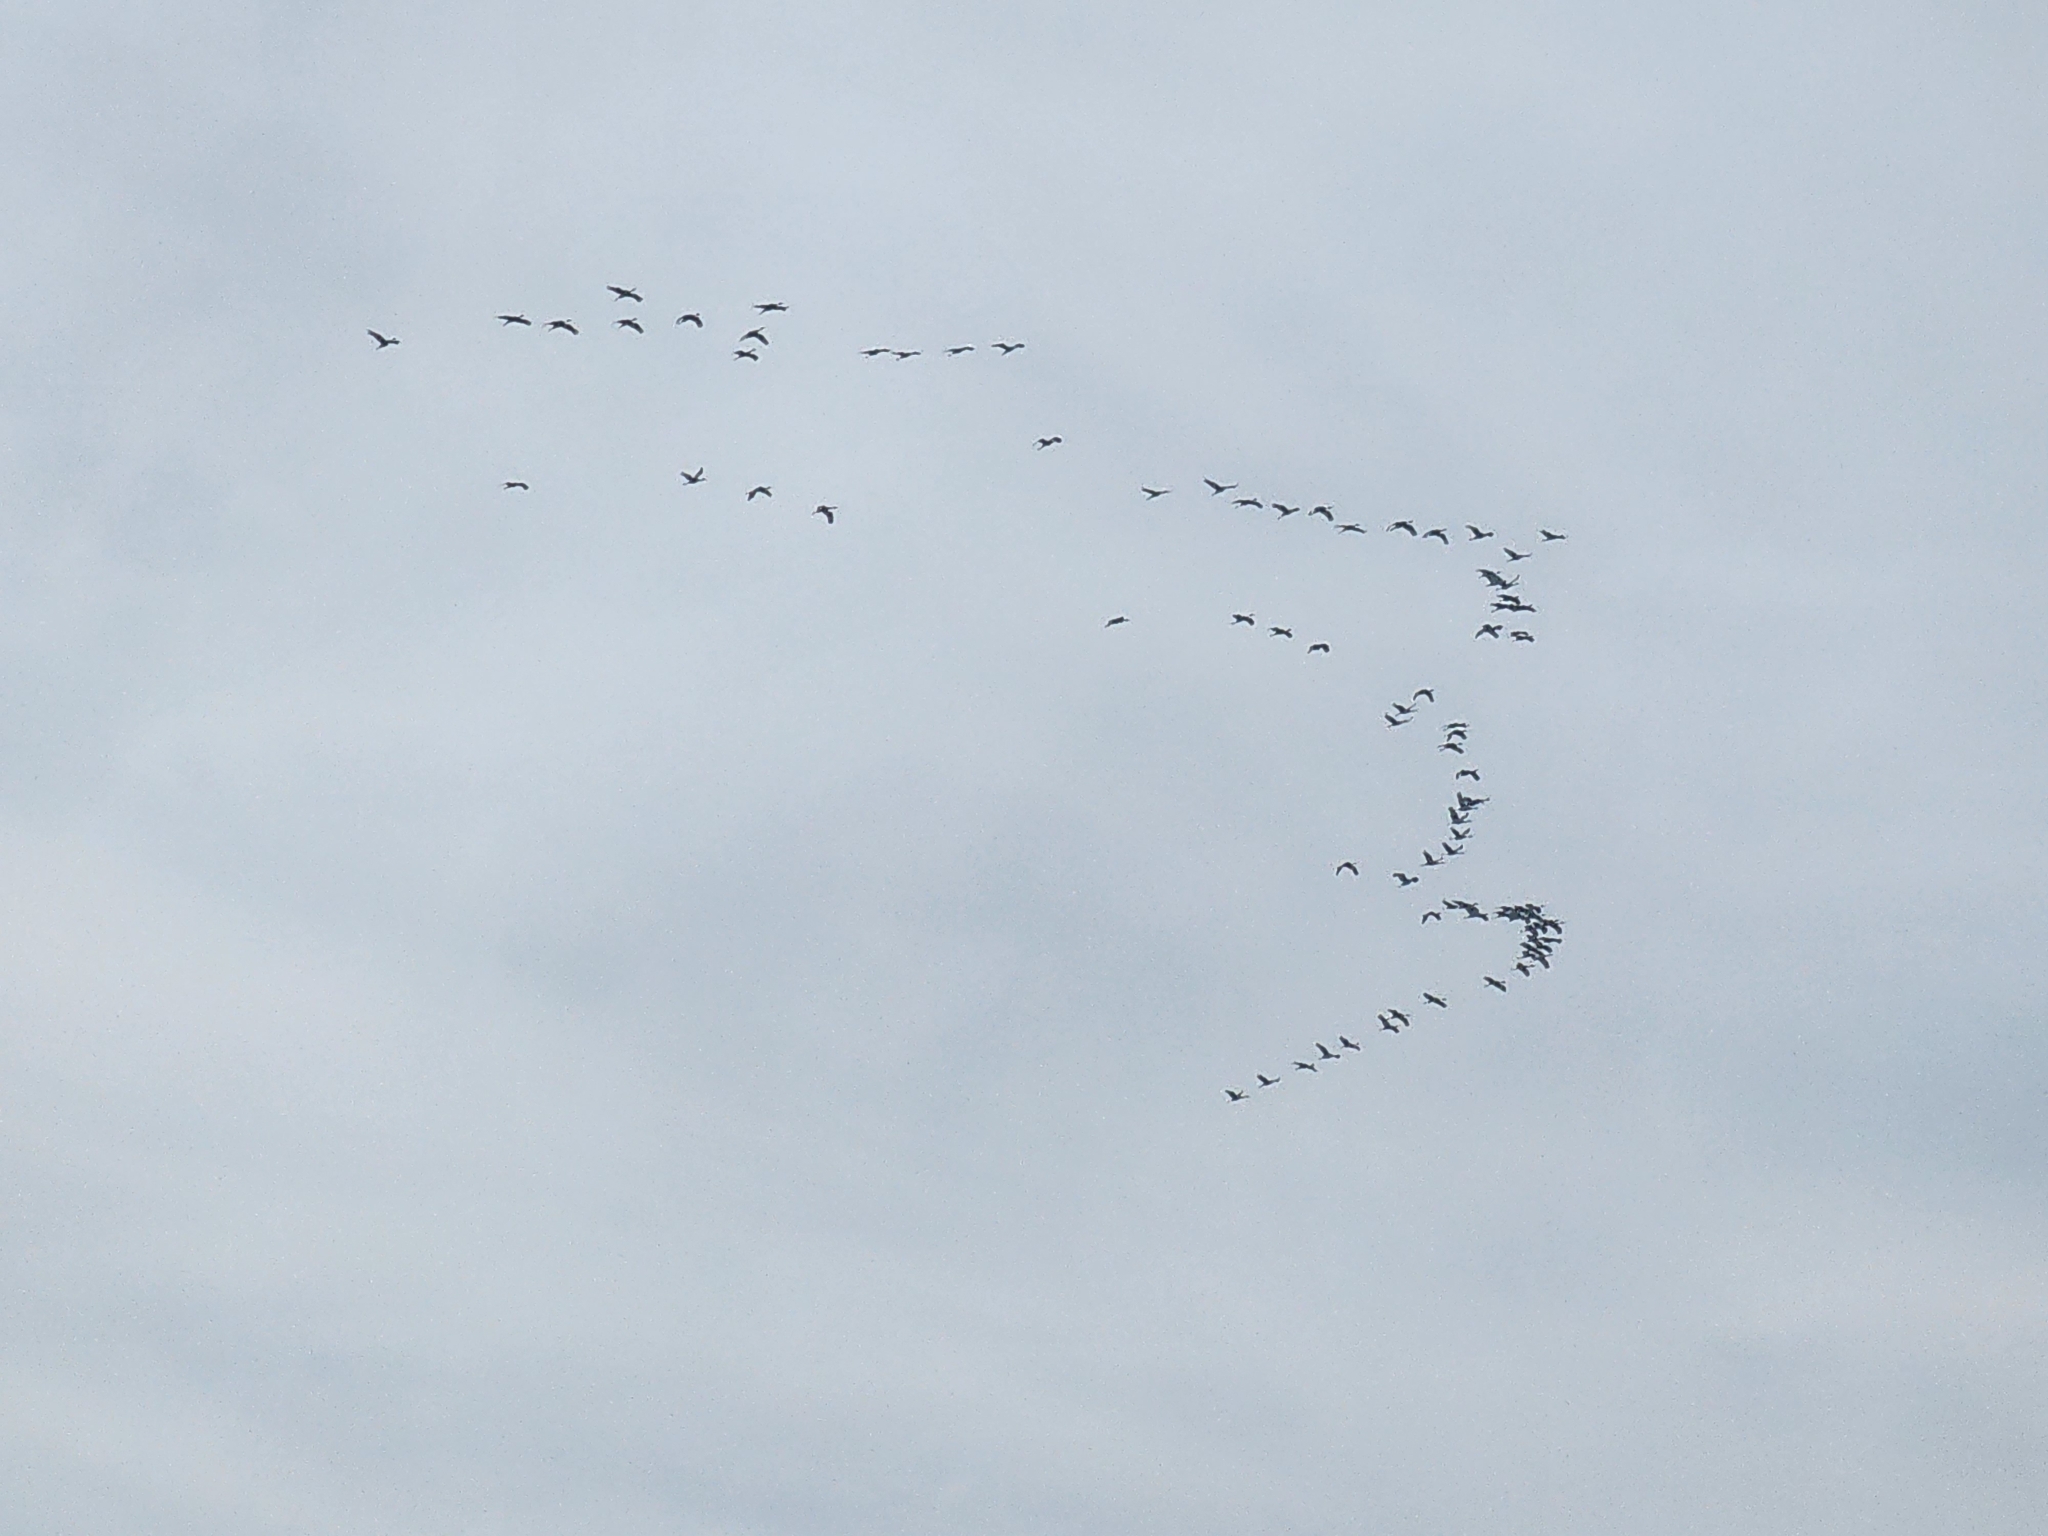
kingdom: Animalia
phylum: Chordata
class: Aves
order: Gruiformes
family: Gruidae
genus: Grus
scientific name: Grus canadensis
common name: Sandhill crane
